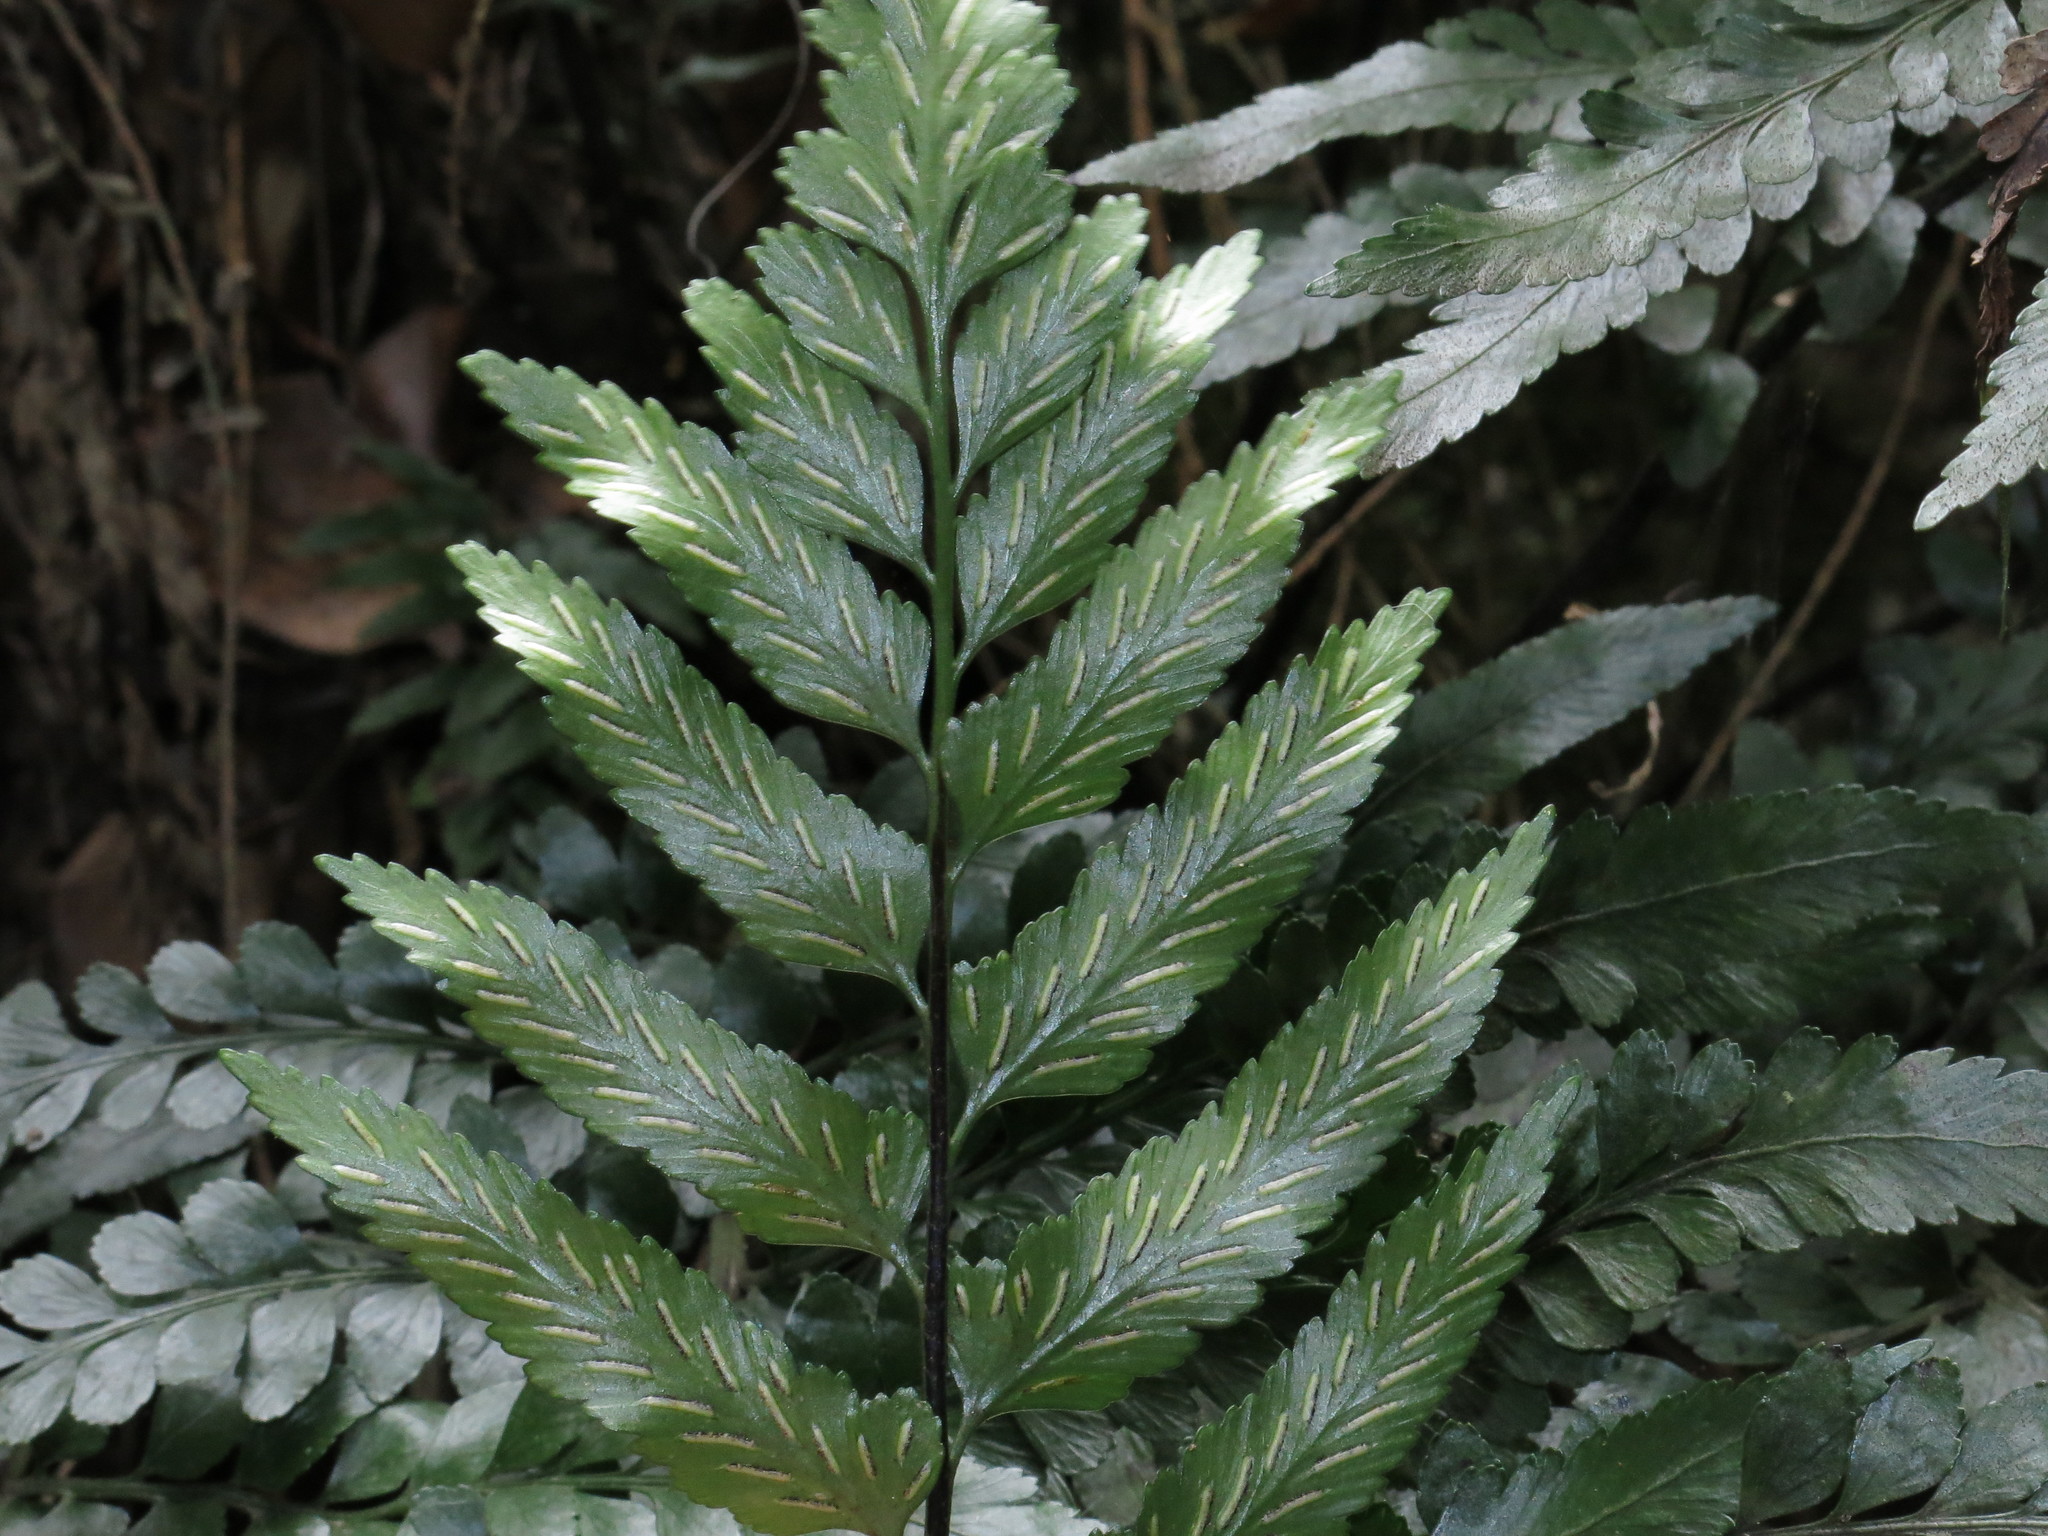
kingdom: Plantae
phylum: Tracheophyta
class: Polypodiopsida
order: Polypodiales
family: Aspleniaceae
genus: Asplenium
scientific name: Asplenium lyallii
